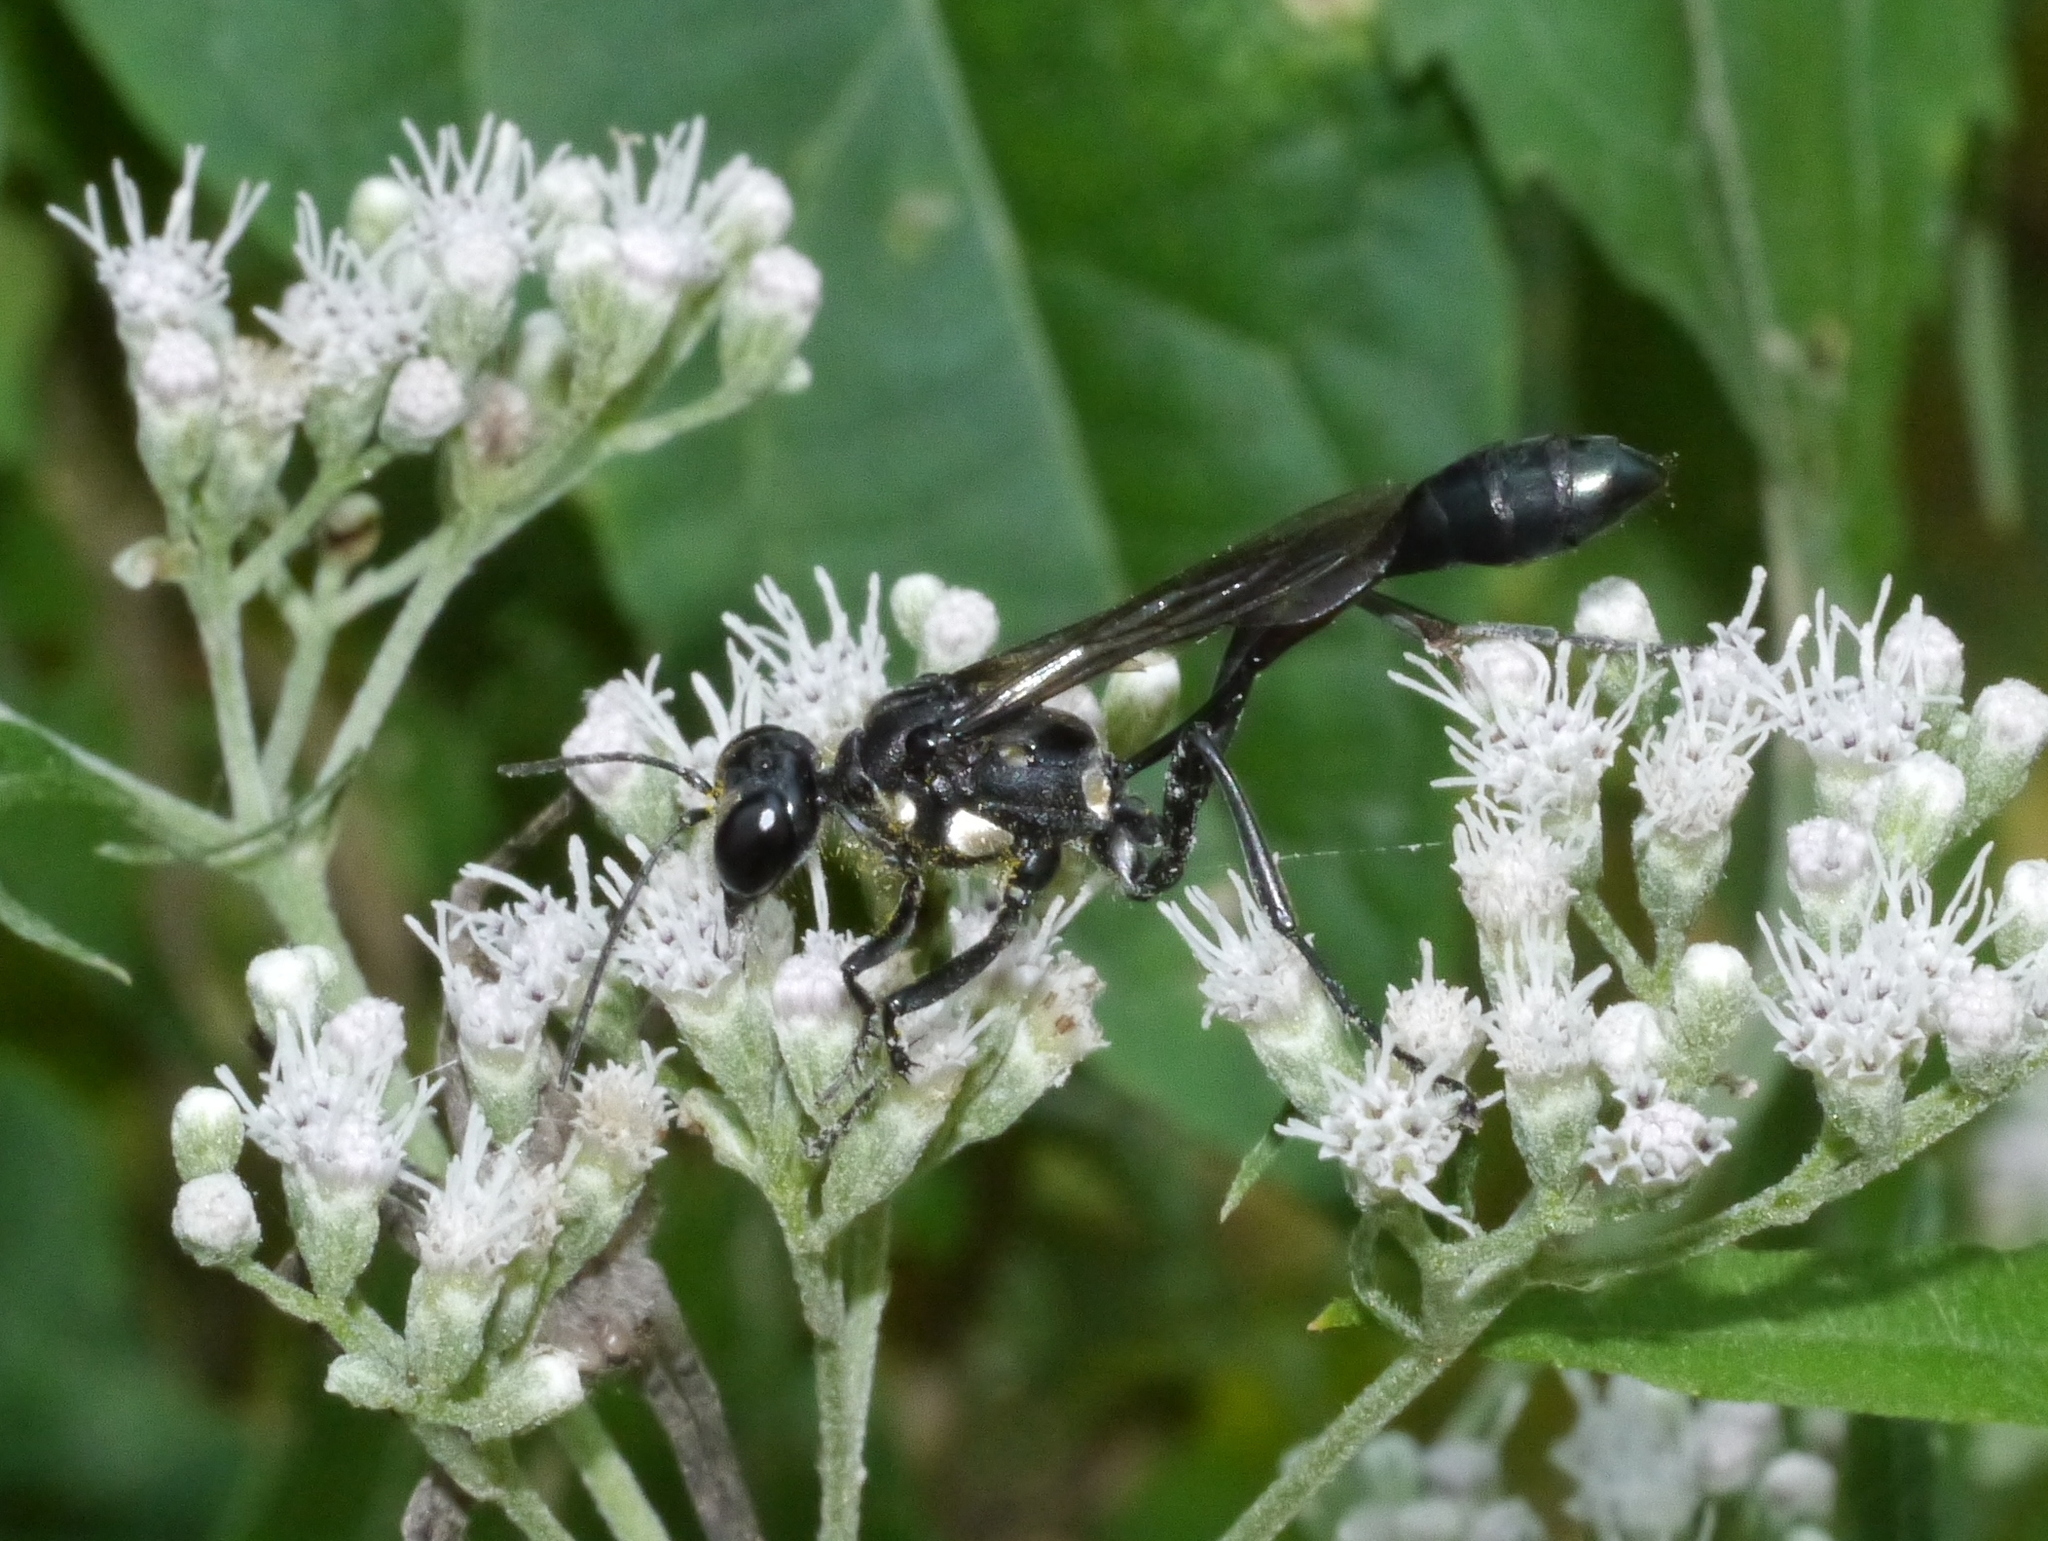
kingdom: Animalia
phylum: Arthropoda
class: Insecta
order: Hymenoptera
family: Sphecidae
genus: Eremnophila
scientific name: Eremnophila aureonotata
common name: Gold-marked thread-waisted wasp
